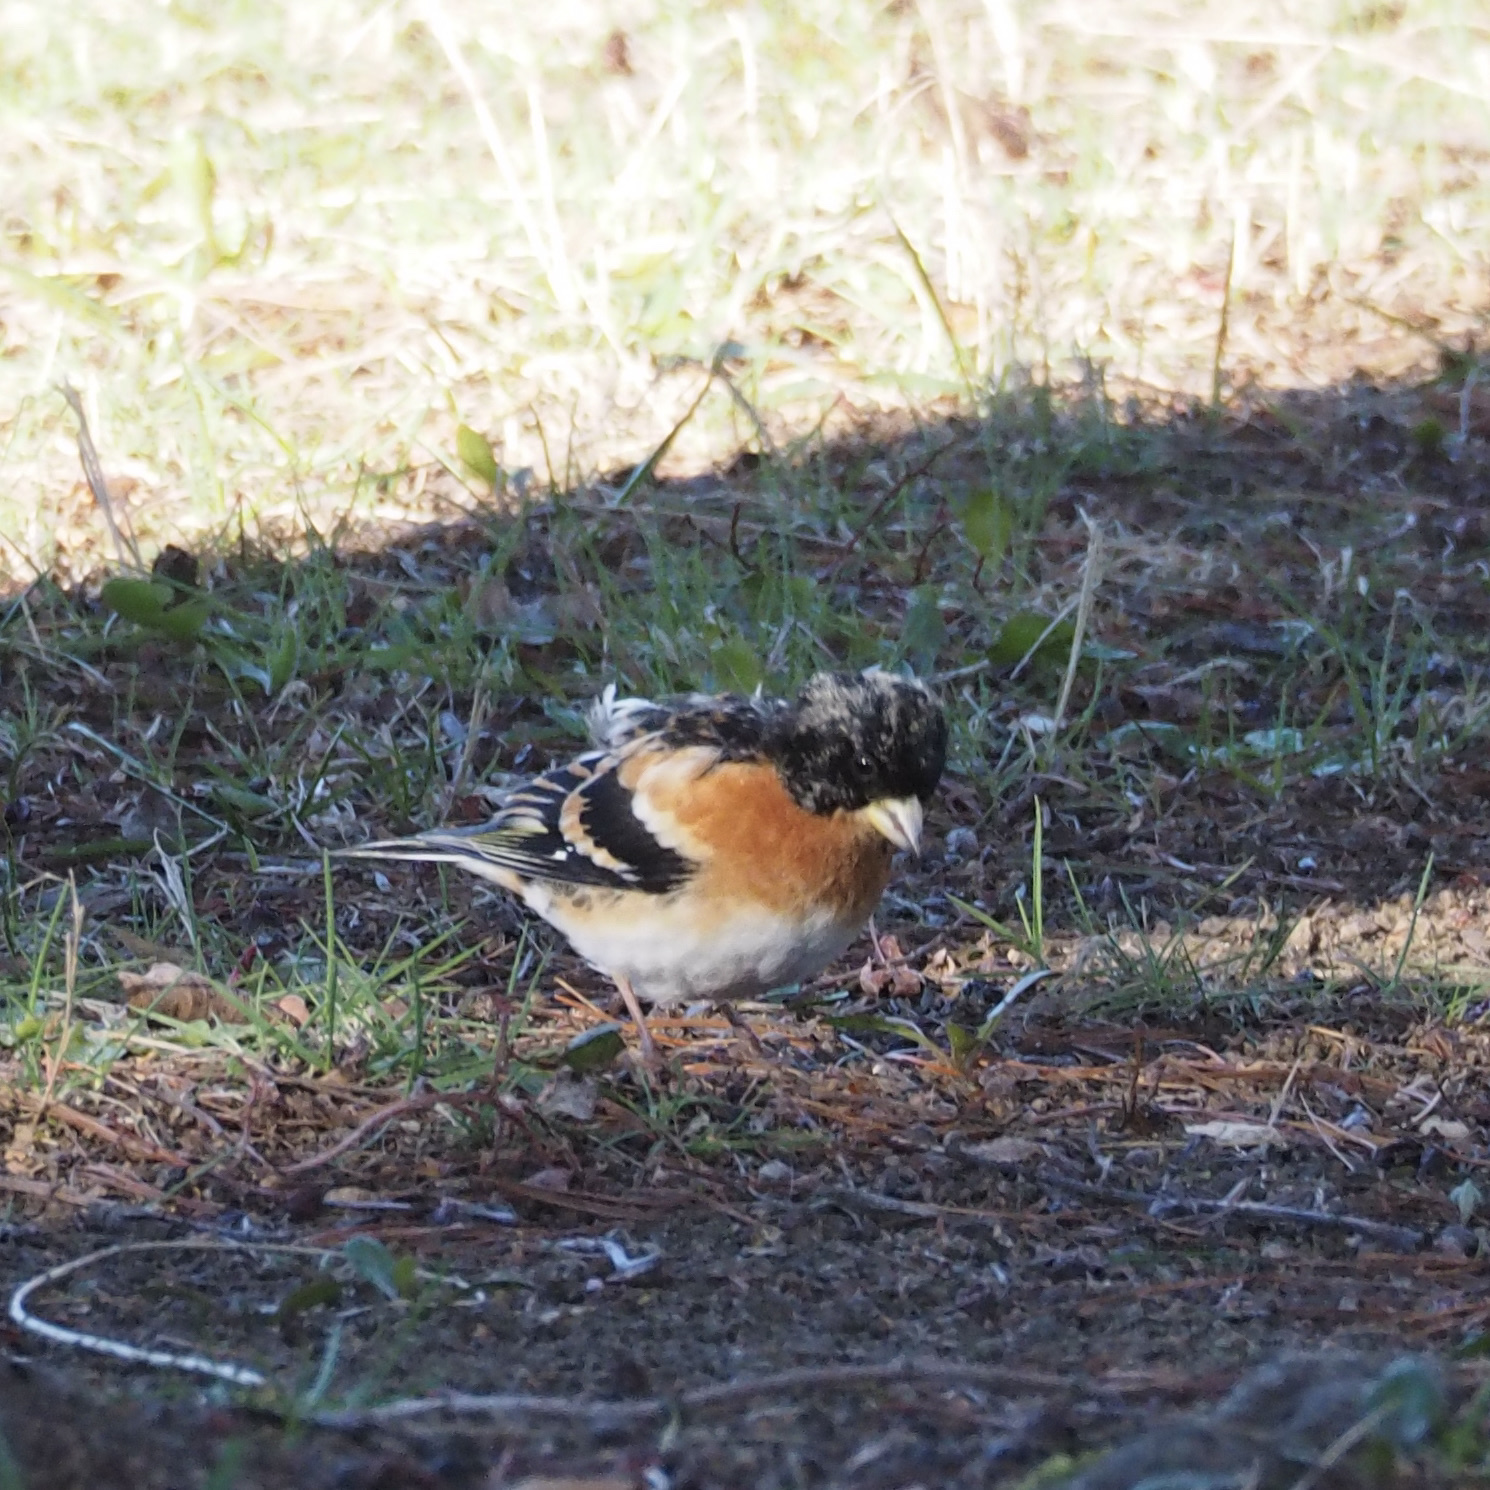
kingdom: Animalia
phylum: Chordata
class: Aves
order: Passeriformes
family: Fringillidae
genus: Fringilla
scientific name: Fringilla montifringilla
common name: Brambling
